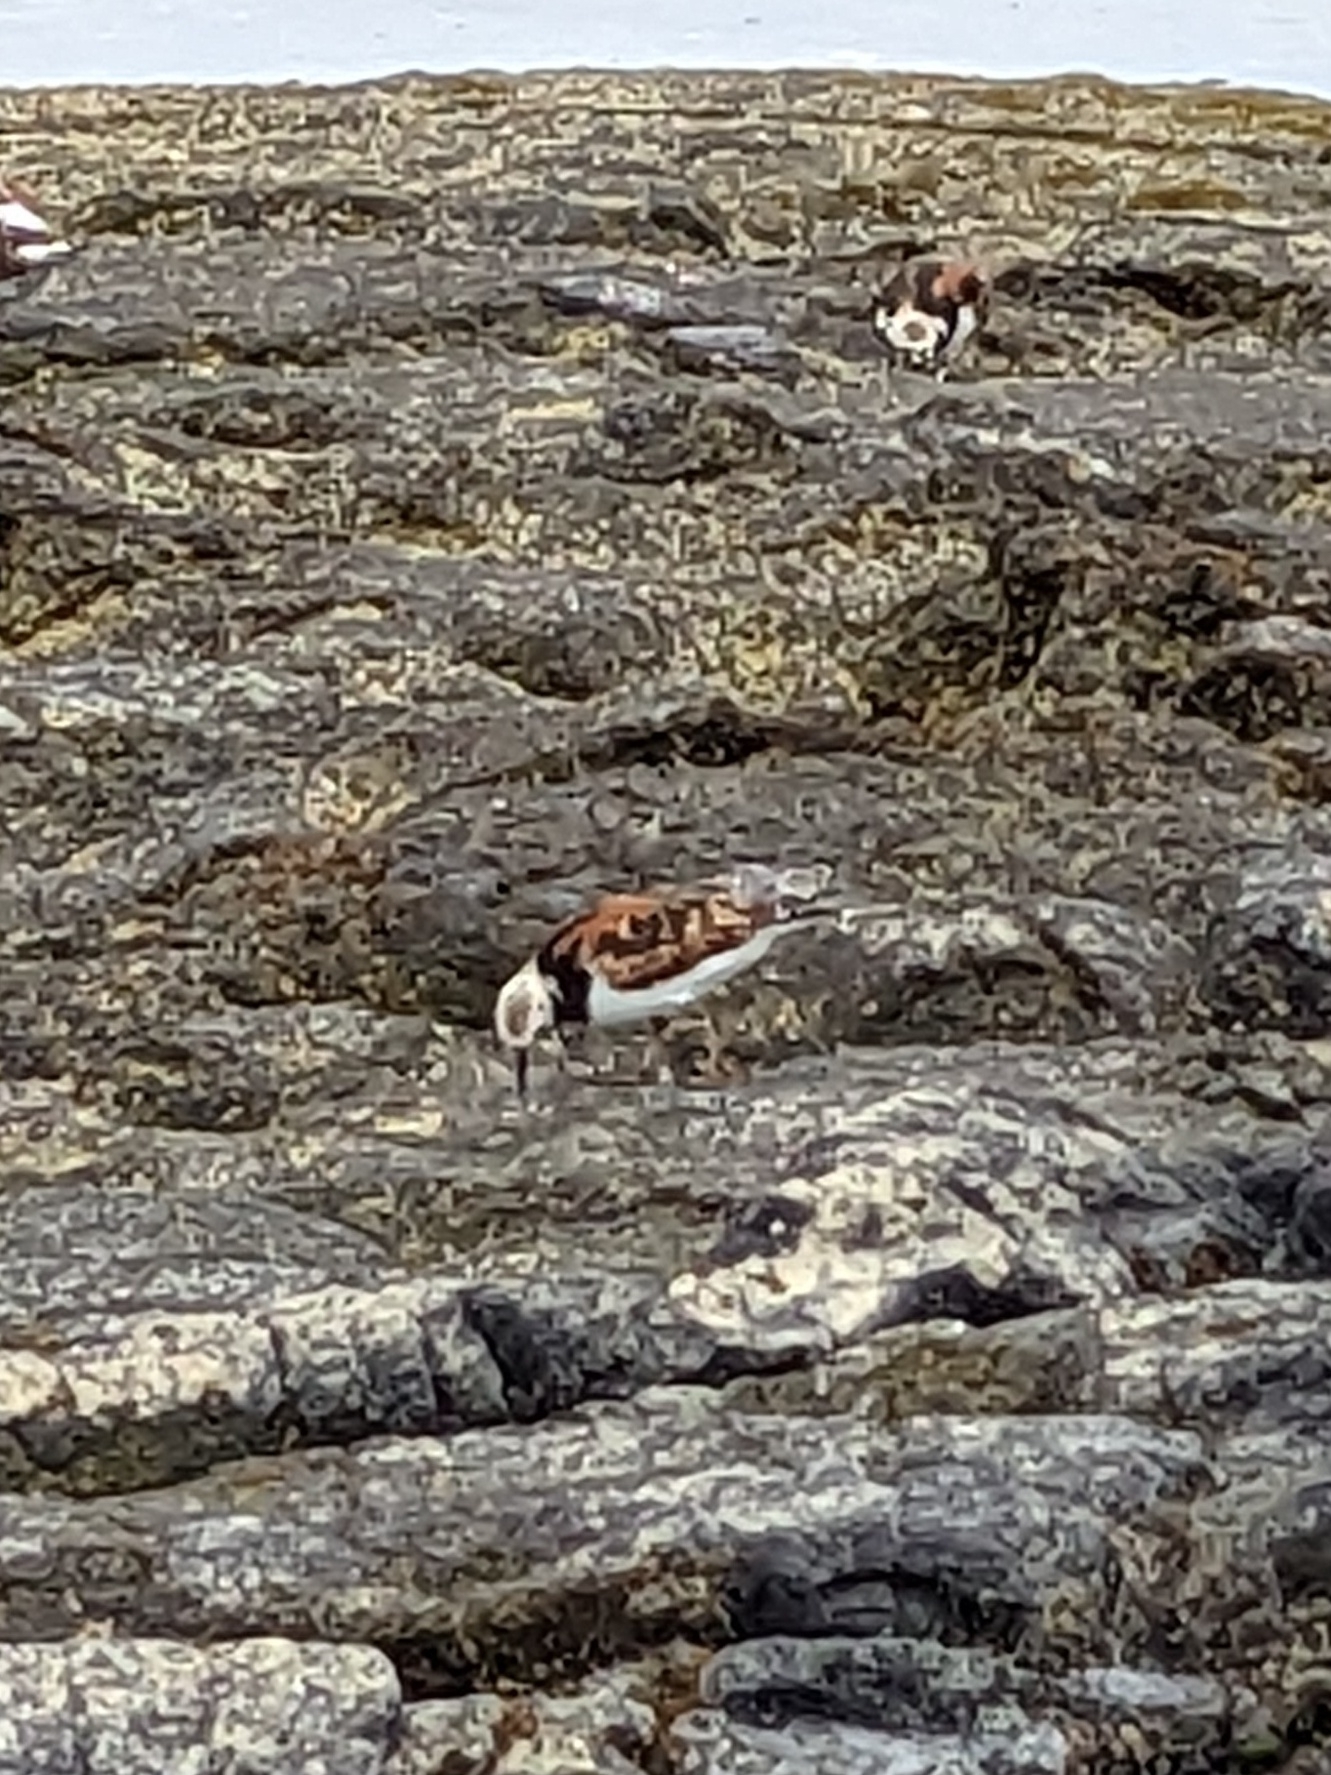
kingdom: Animalia
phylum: Chordata
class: Aves
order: Charadriiformes
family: Scolopacidae
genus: Arenaria
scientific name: Arenaria interpres
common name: Ruddy turnstone
